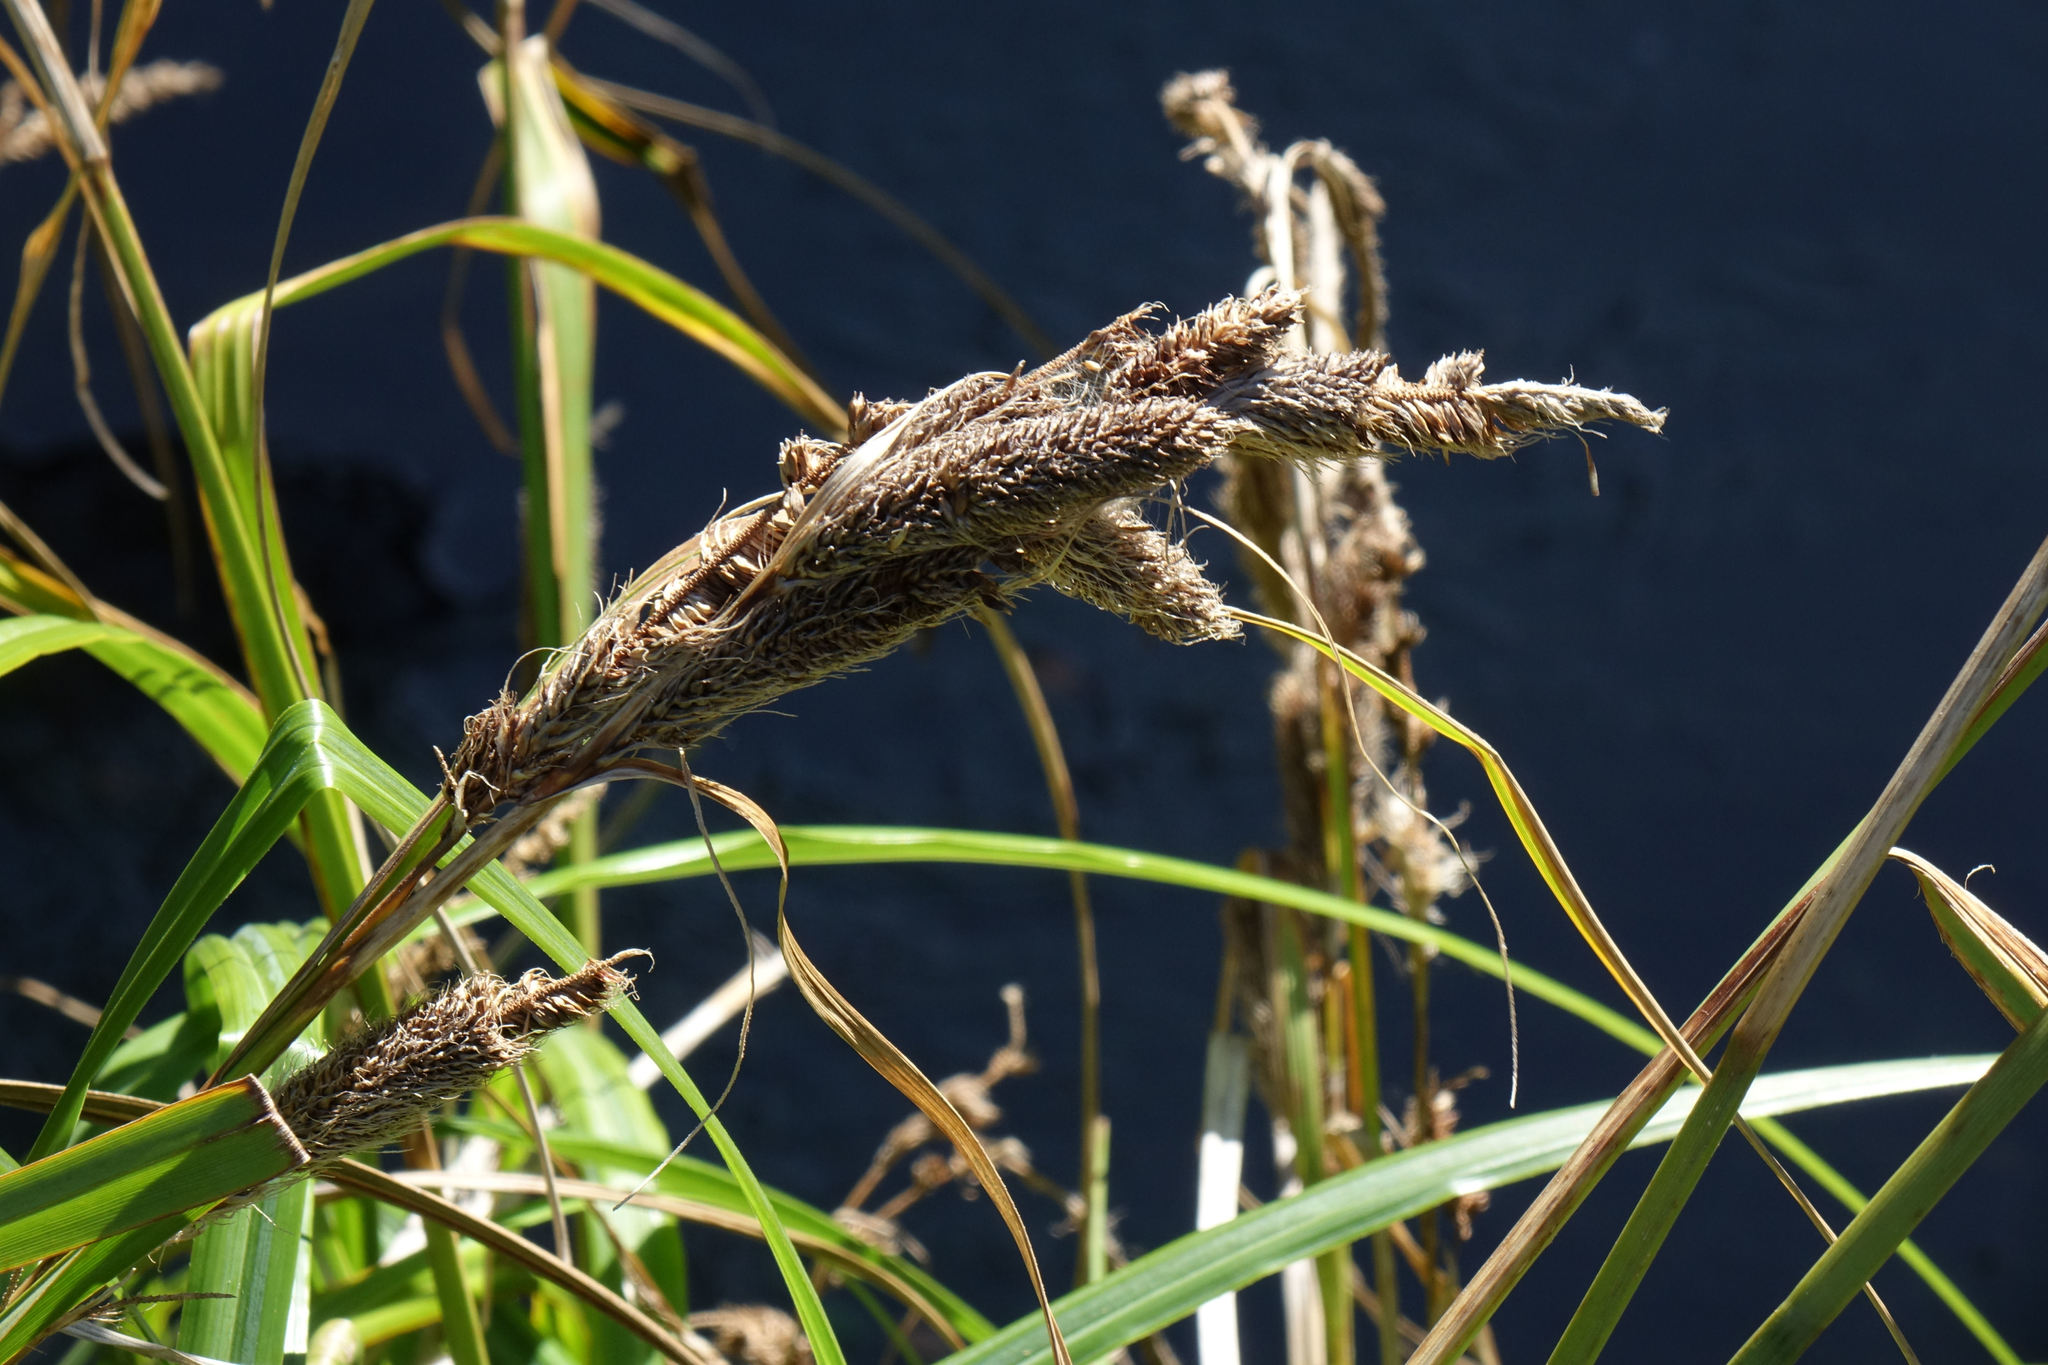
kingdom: Plantae
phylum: Tracheophyta
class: Liliopsida
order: Poales
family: Cyperaceae
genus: Carex
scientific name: Carex trifida
